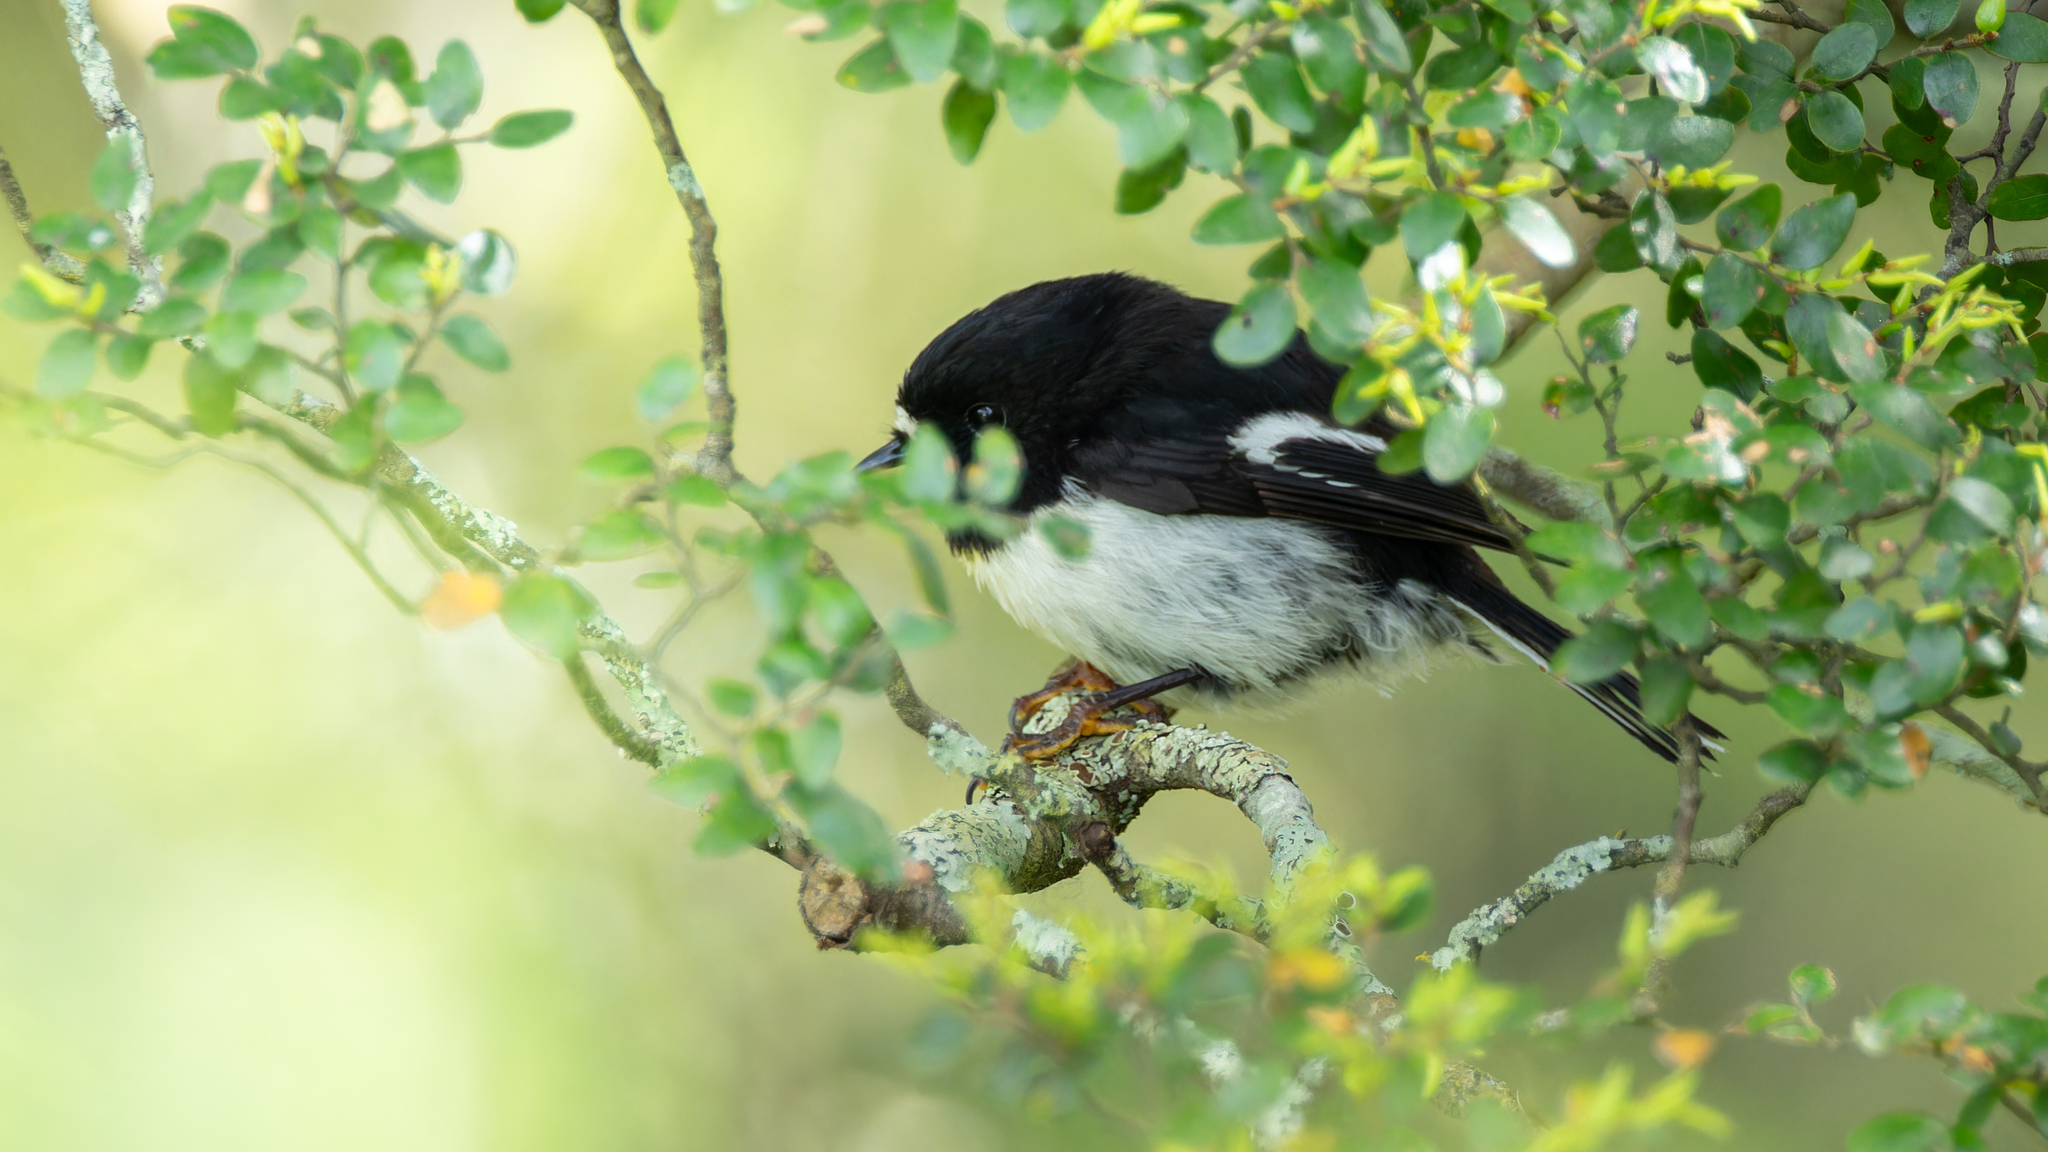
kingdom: Animalia
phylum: Chordata
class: Aves
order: Passeriformes
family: Petroicidae
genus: Petroica
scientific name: Petroica macrocephala
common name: Tomtit
